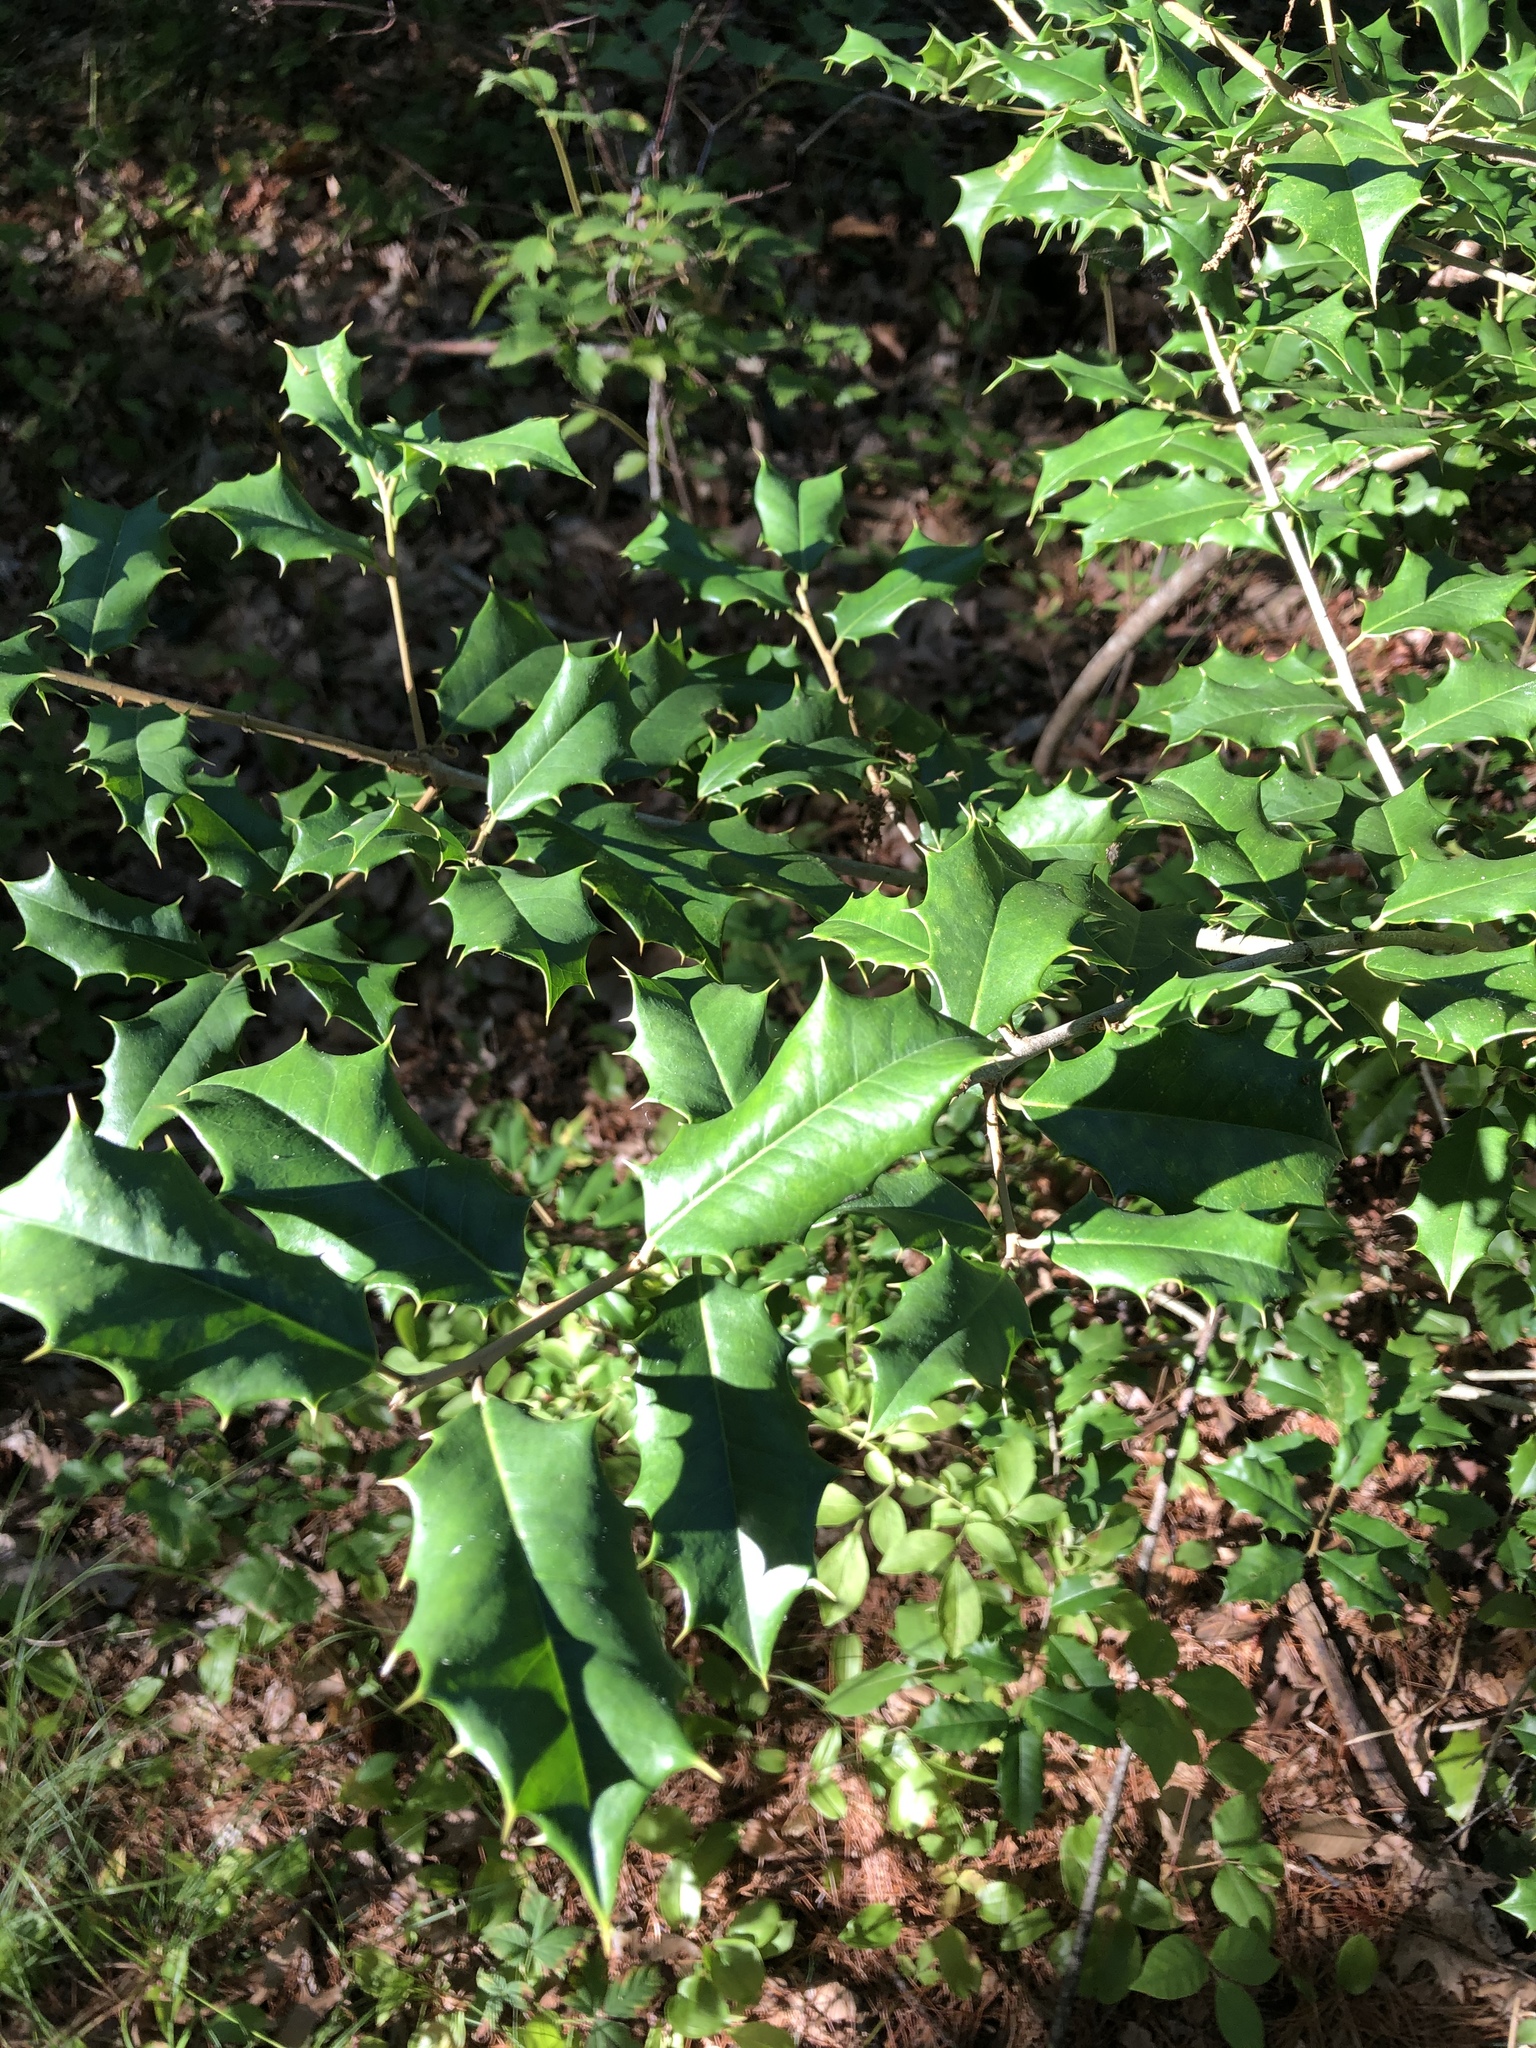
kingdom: Plantae
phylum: Tracheophyta
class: Magnoliopsida
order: Aquifoliales
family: Aquifoliaceae
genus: Ilex
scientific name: Ilex opaca
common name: American holly
